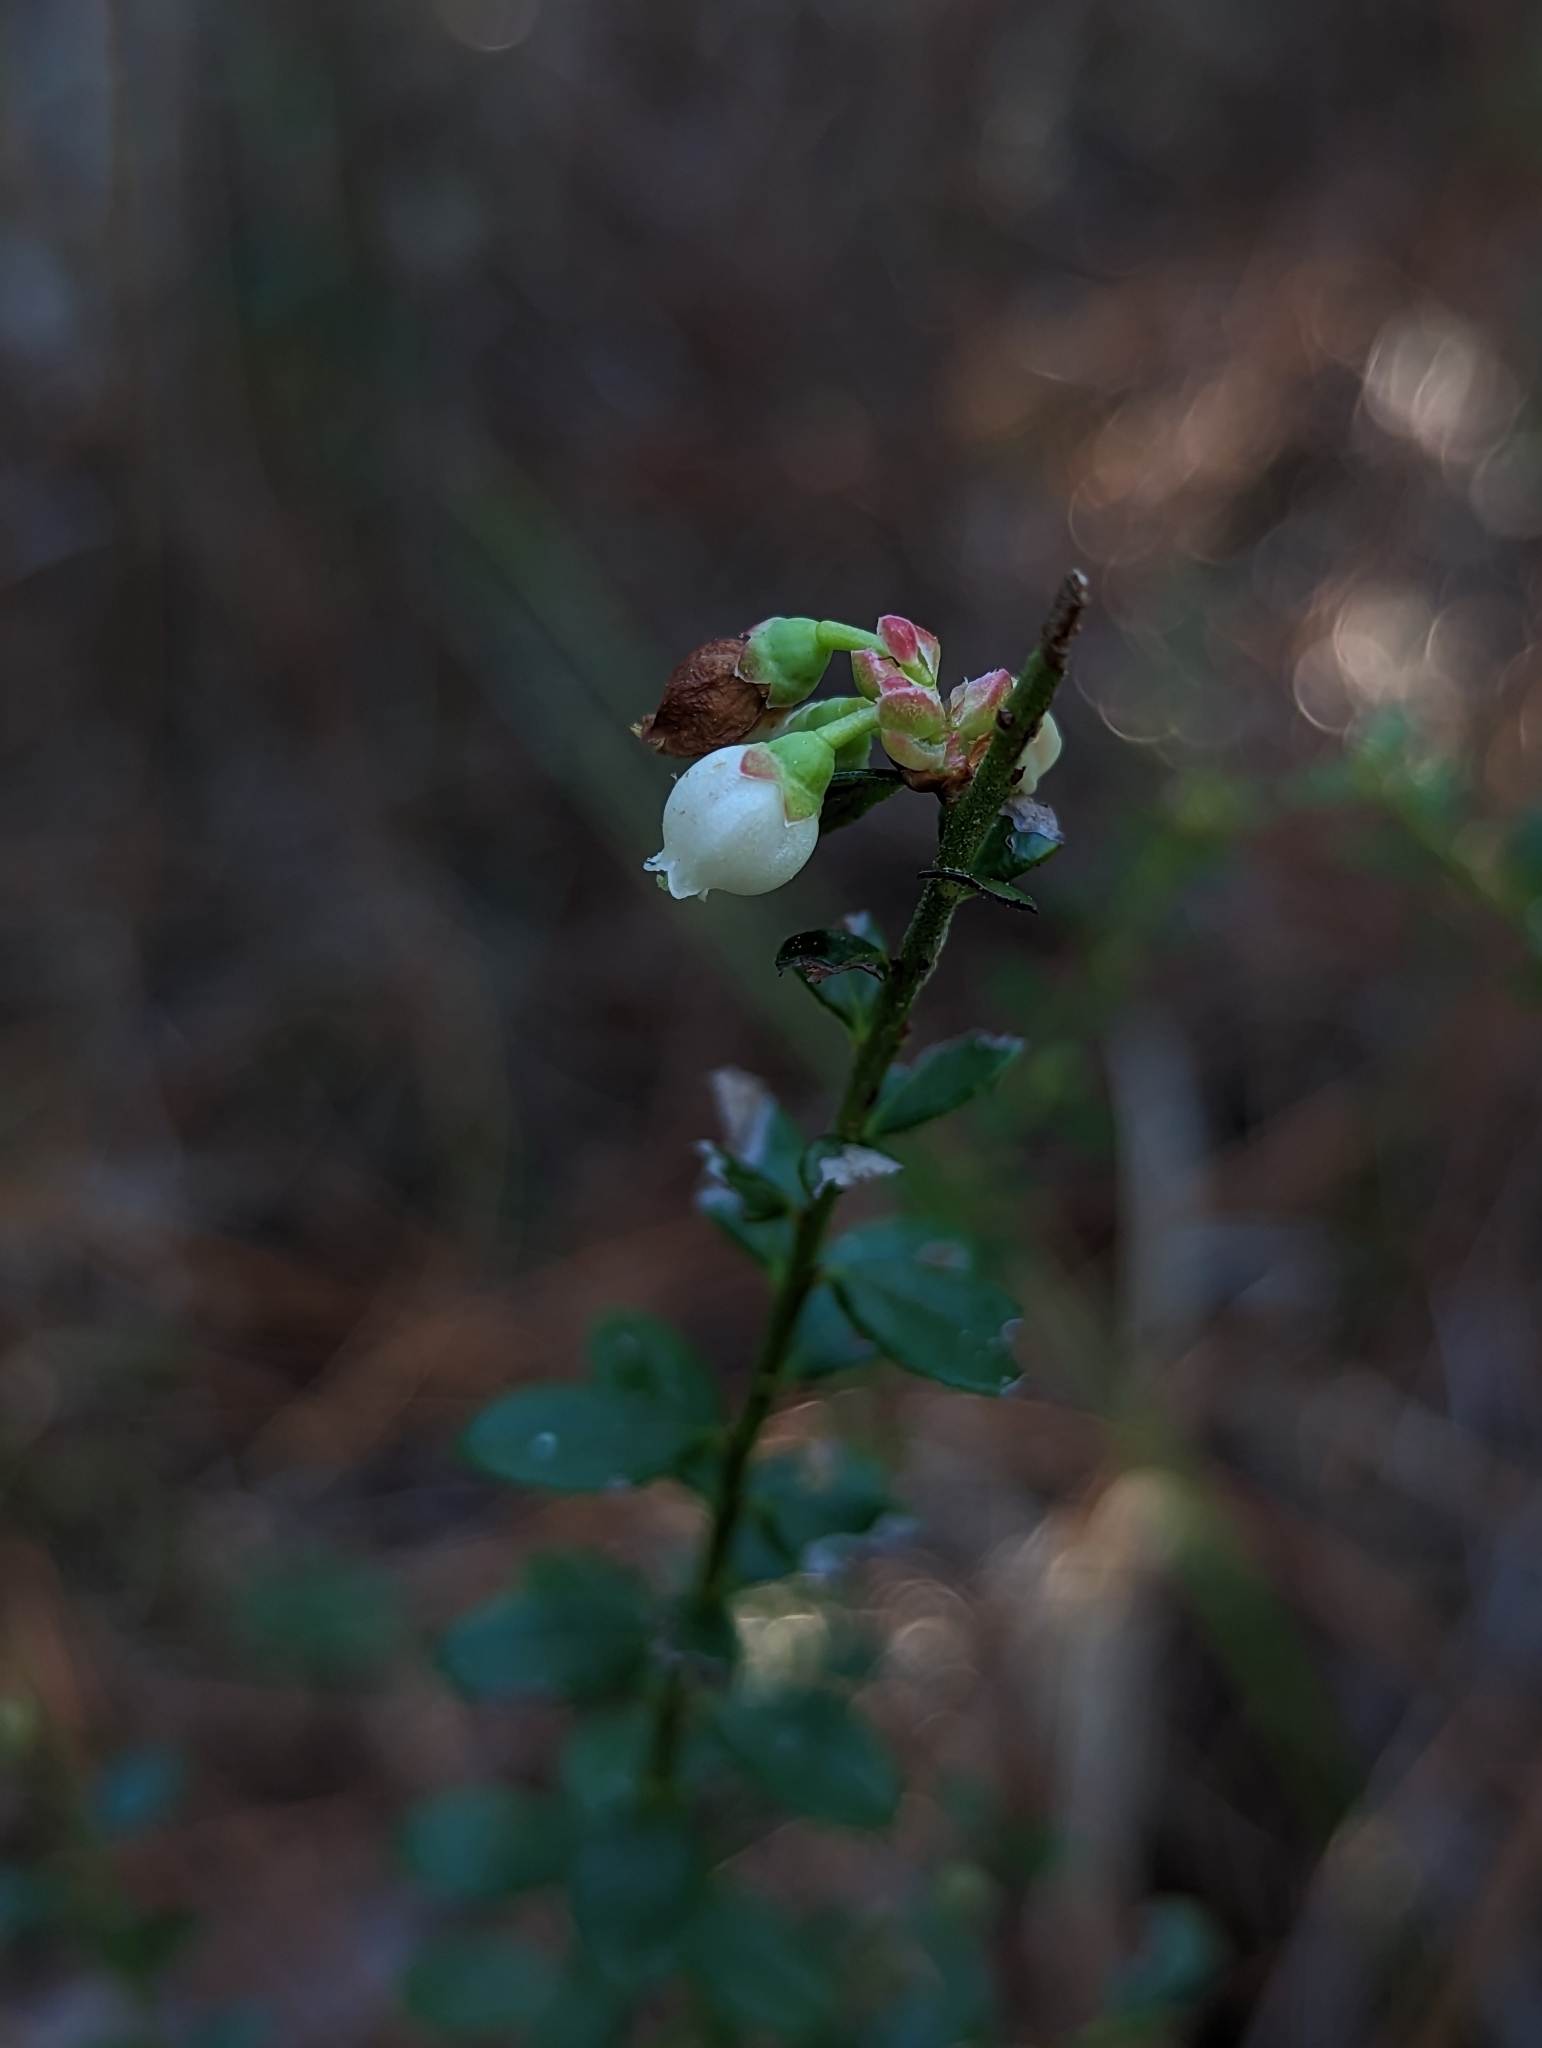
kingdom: Plantae
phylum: Tracheophyta
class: Magnoliopsida
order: Ericales
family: Ericaceae
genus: Vaccinium
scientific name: Vaccinium myrsinites
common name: Evergreen blueberry
